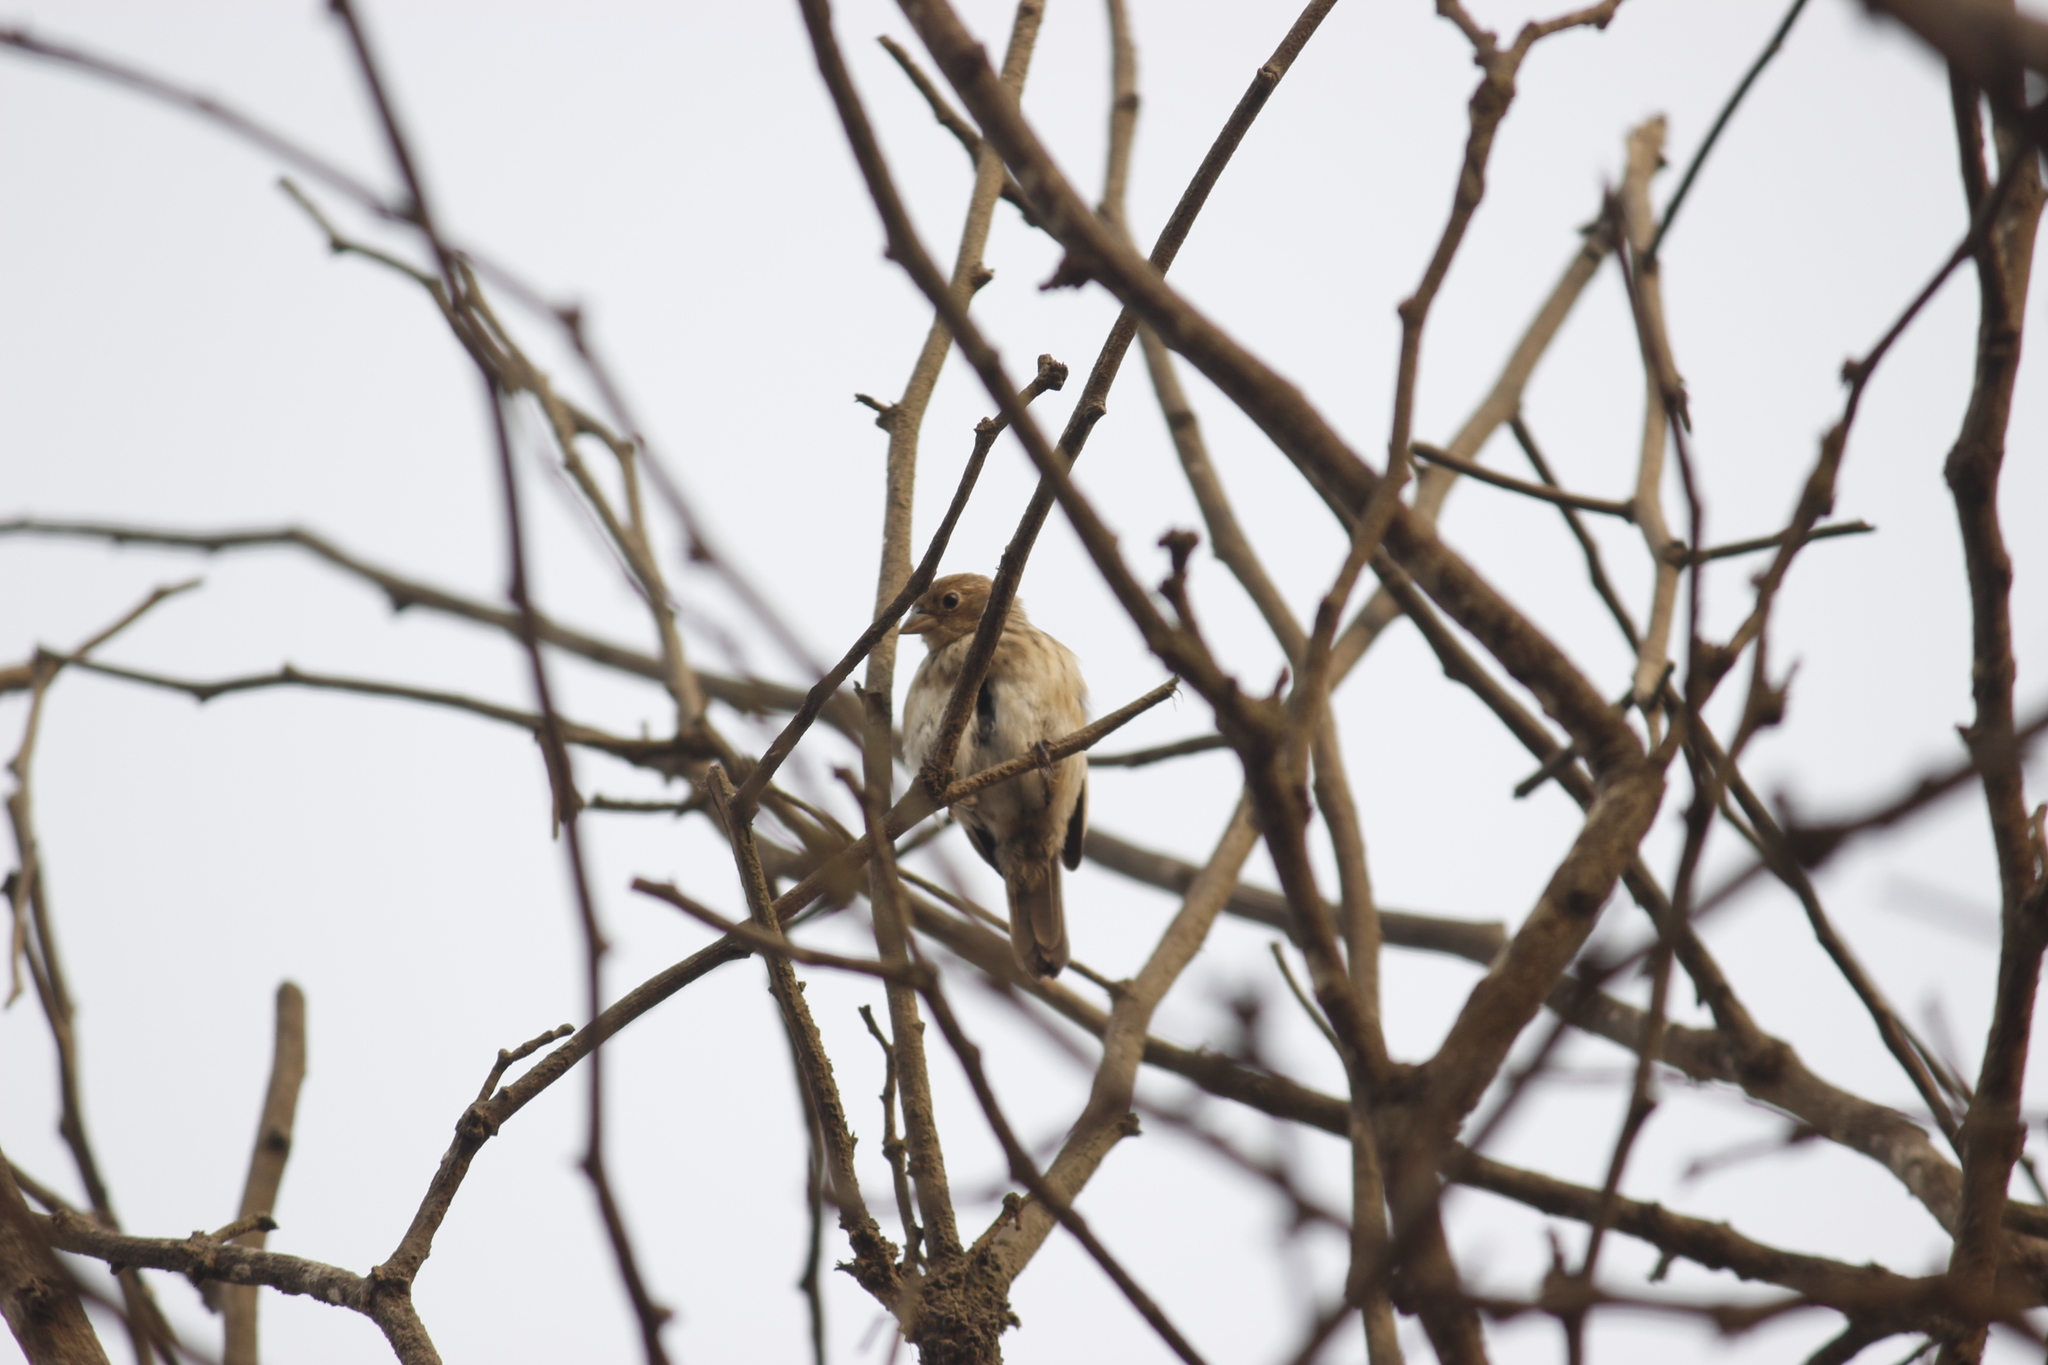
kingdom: Animalia
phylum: Chordata
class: Aves
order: Passeriformes
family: Thraupidae
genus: Volatinia
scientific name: Volatinia jacarina
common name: Blue-black grassquit
